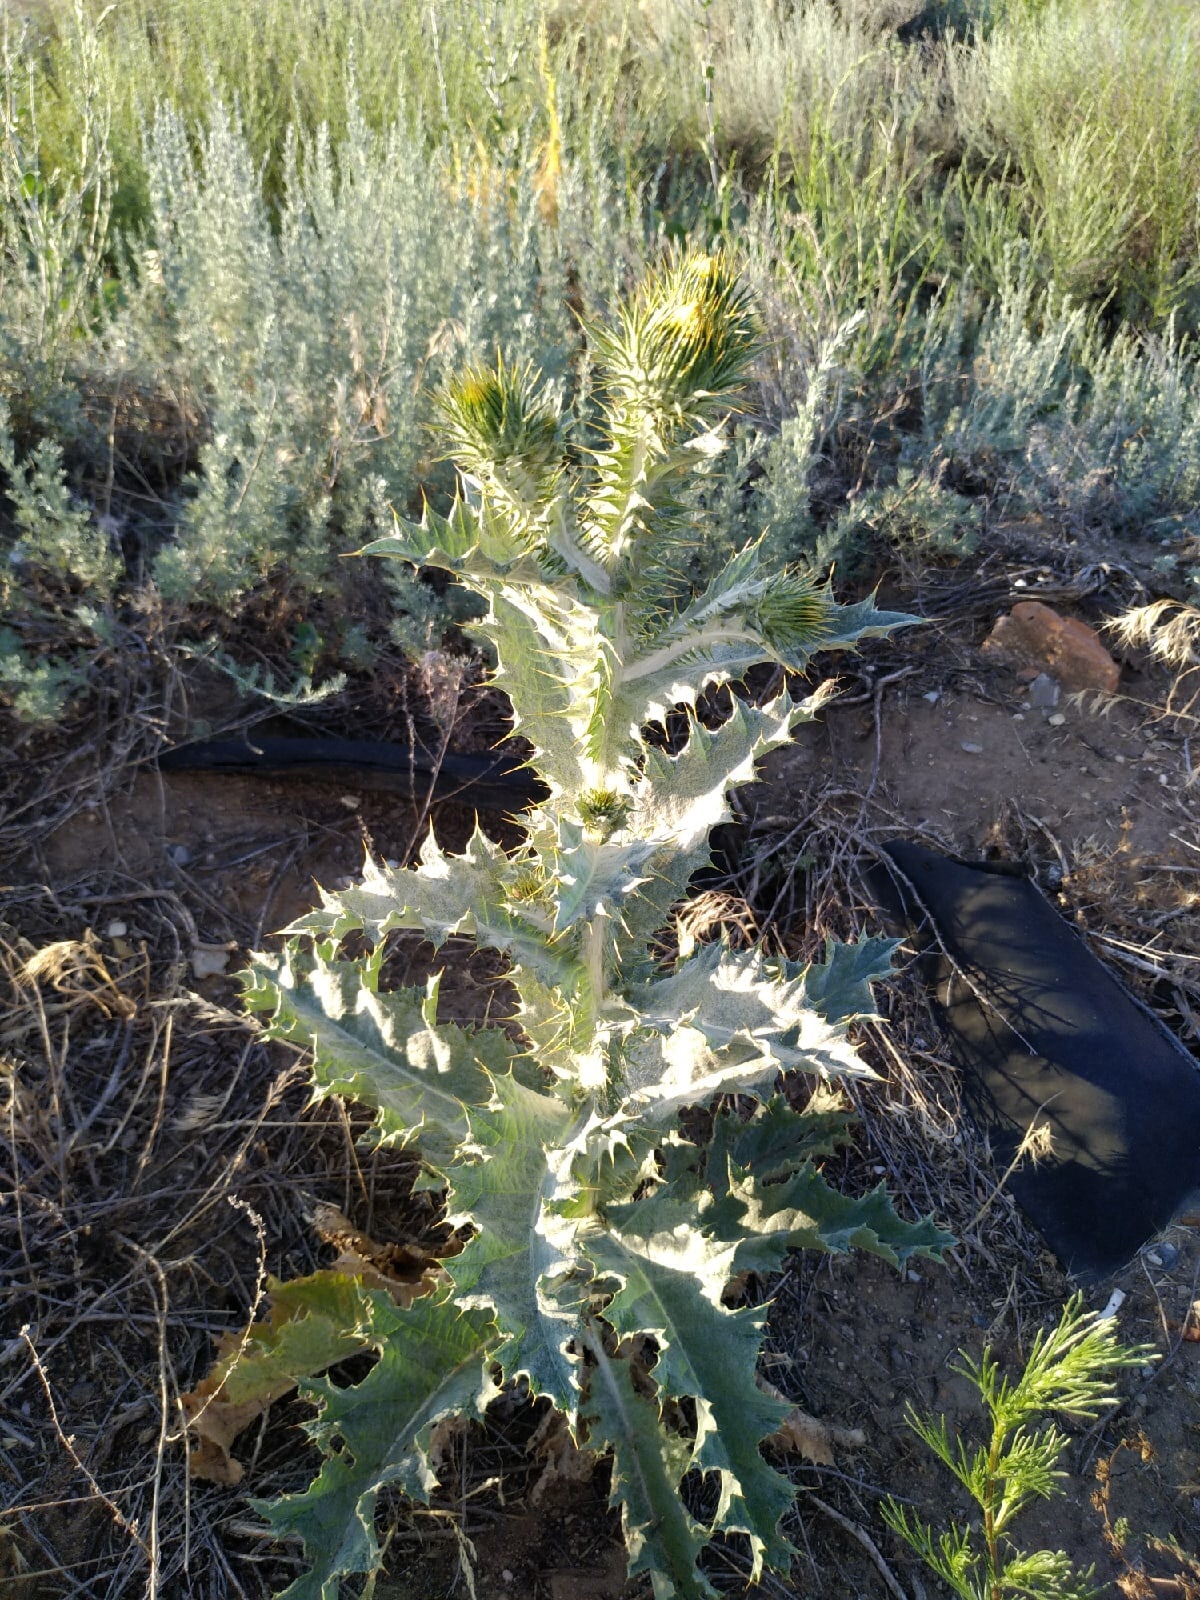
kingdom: Plantae
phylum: Tracheophyta
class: Magnoliopsida
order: Asterales
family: Asteraceae
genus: Onopordum
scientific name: Onopordum acanthium
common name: Scotch thistle
